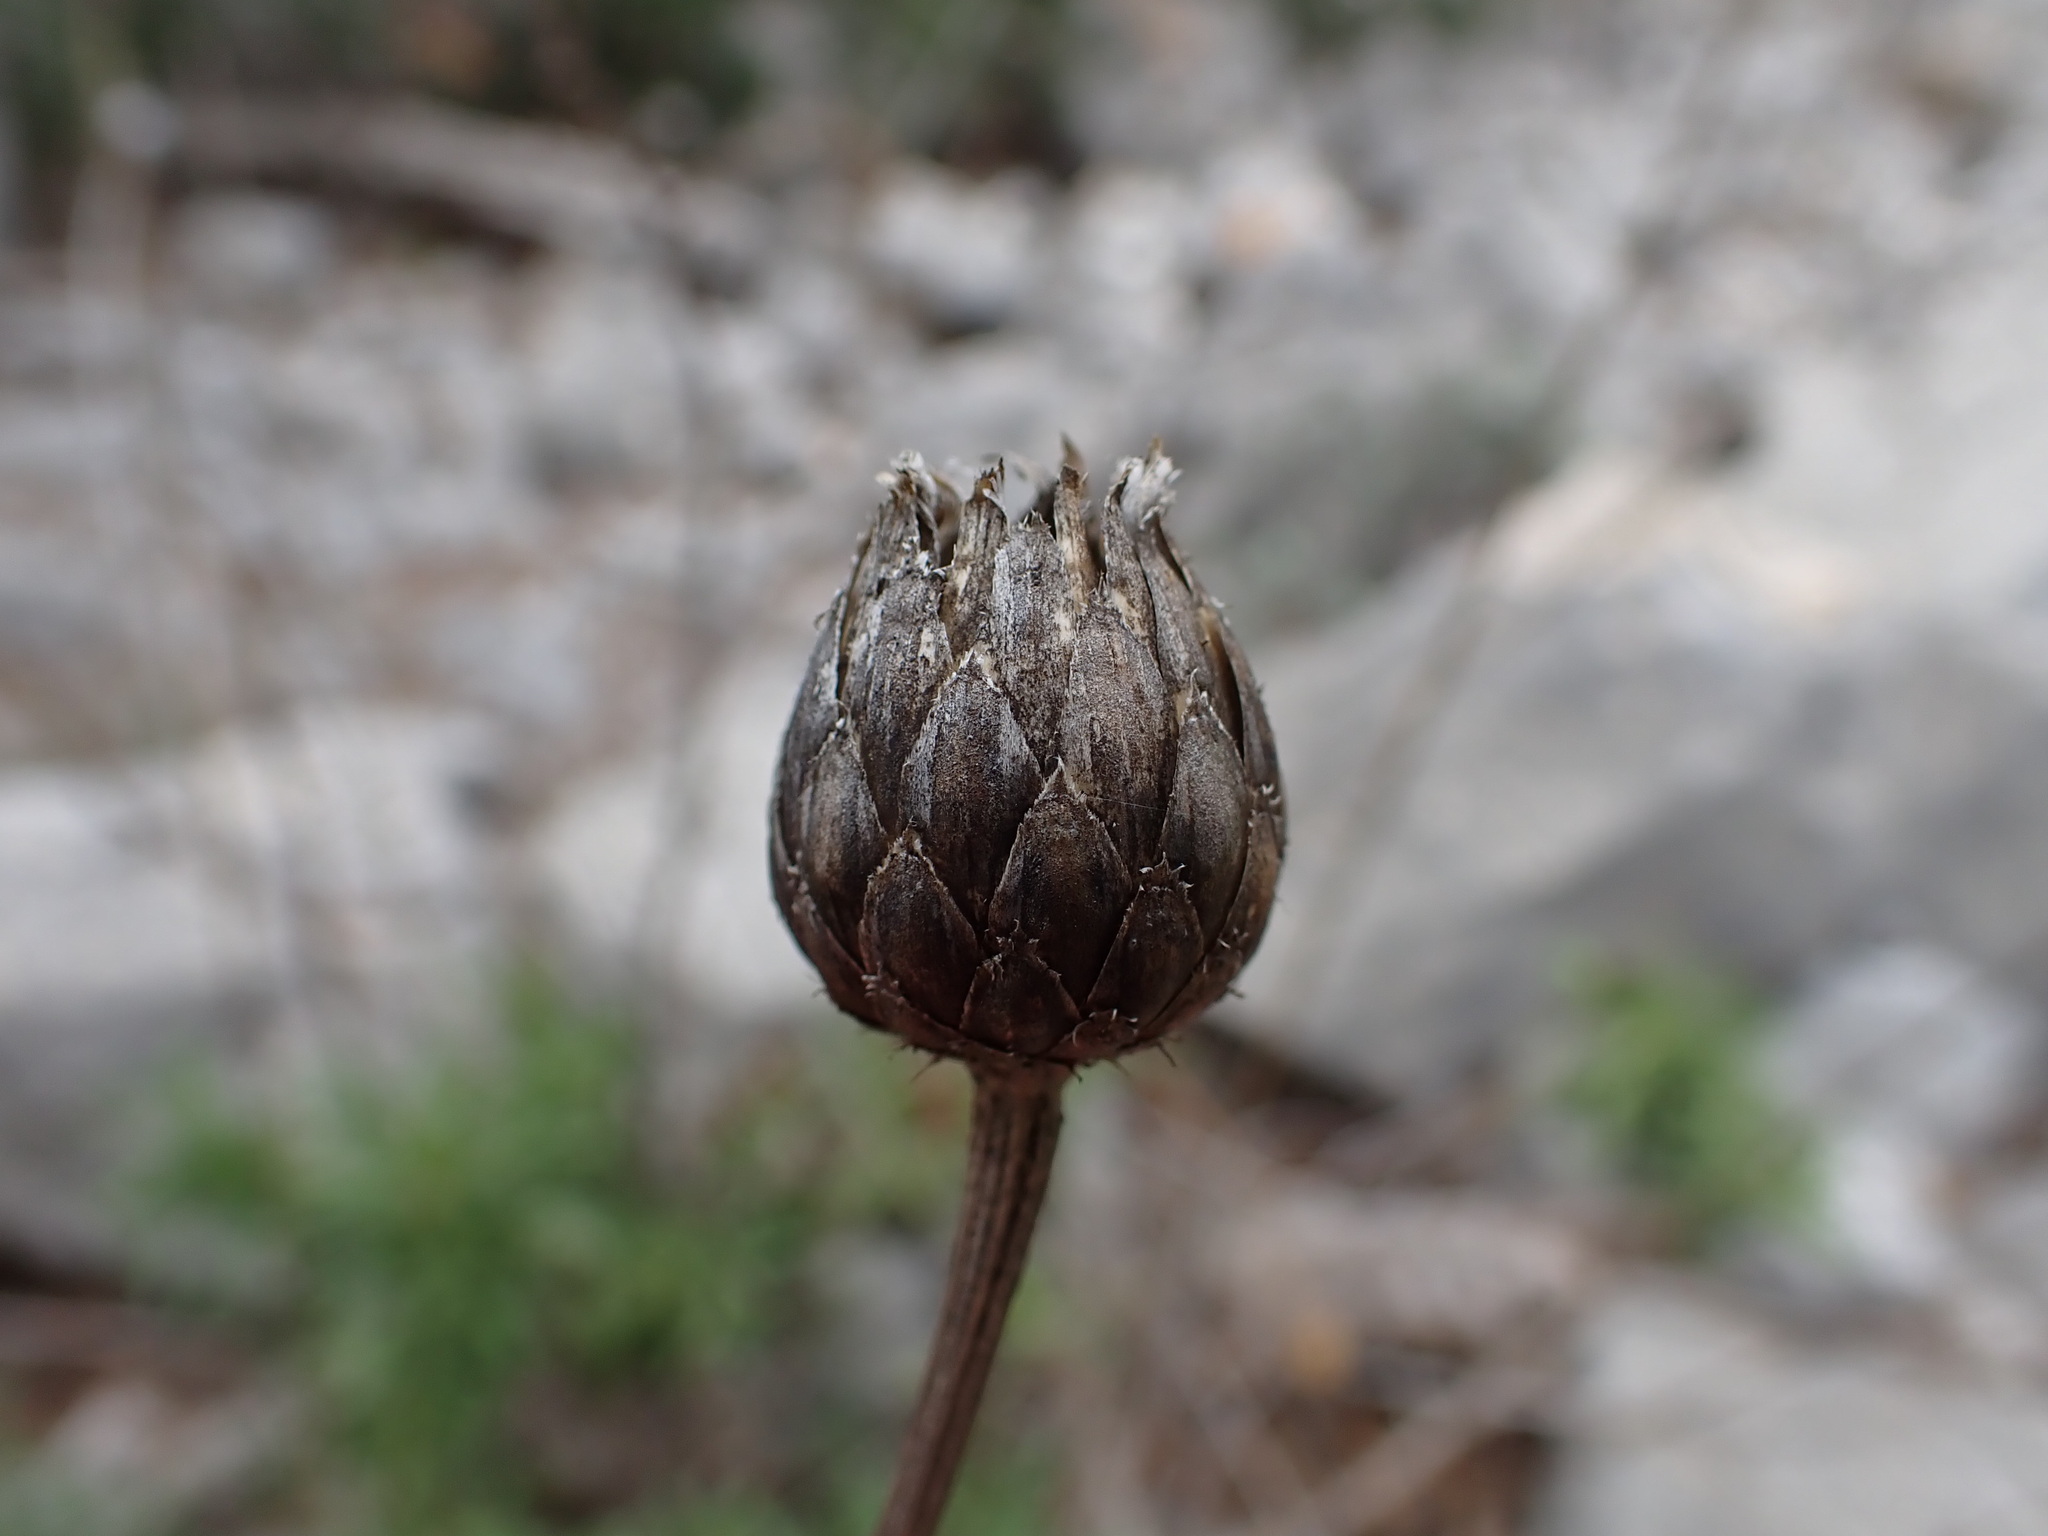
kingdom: Plantae
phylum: Tracheophyta
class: Magnoliopsida
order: Asterales
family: Asteraceae
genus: Cheirolophus
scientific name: Cheirolophus intybaceus
